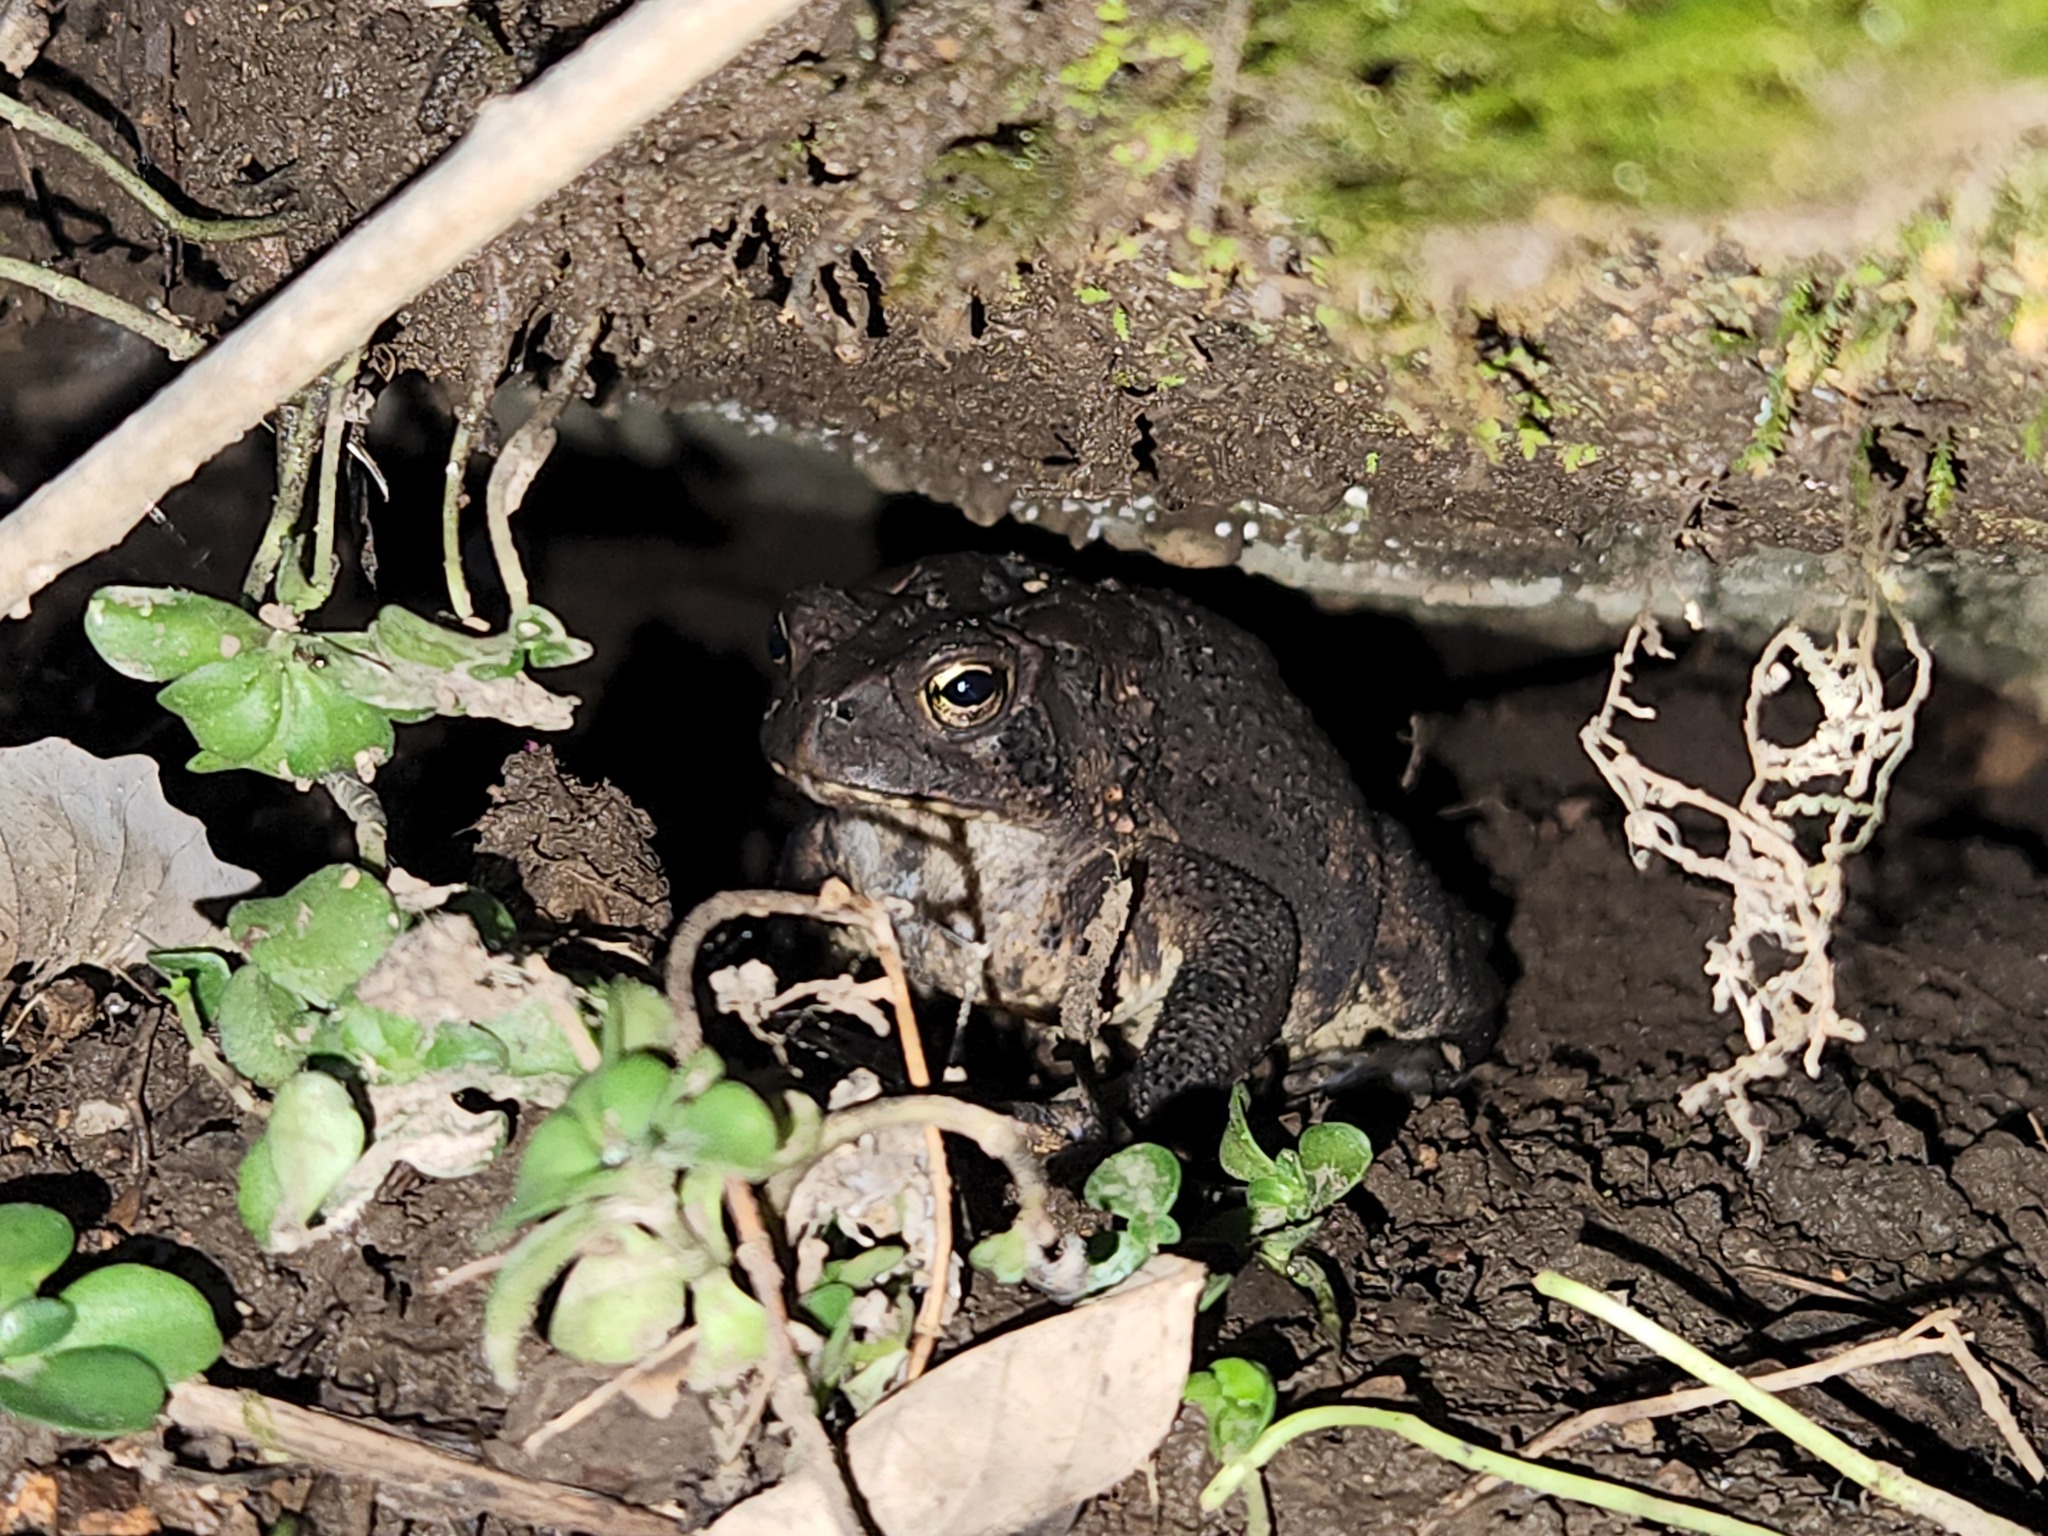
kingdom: Animalia
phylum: Chordata
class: Amphibia
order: Anura
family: Bufonidae
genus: Anaxyrus
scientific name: Anaxyrus americanus
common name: American toad
